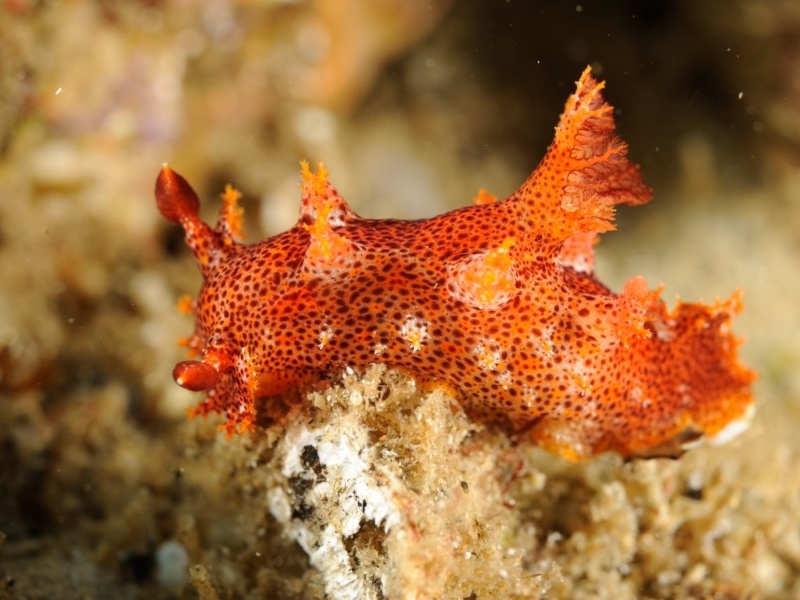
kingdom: Animalia
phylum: Mollusca
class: Gastropoda
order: Nudibranchia
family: Polyceridae
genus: Plocamopherus
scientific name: Plocamopherus imperialis
